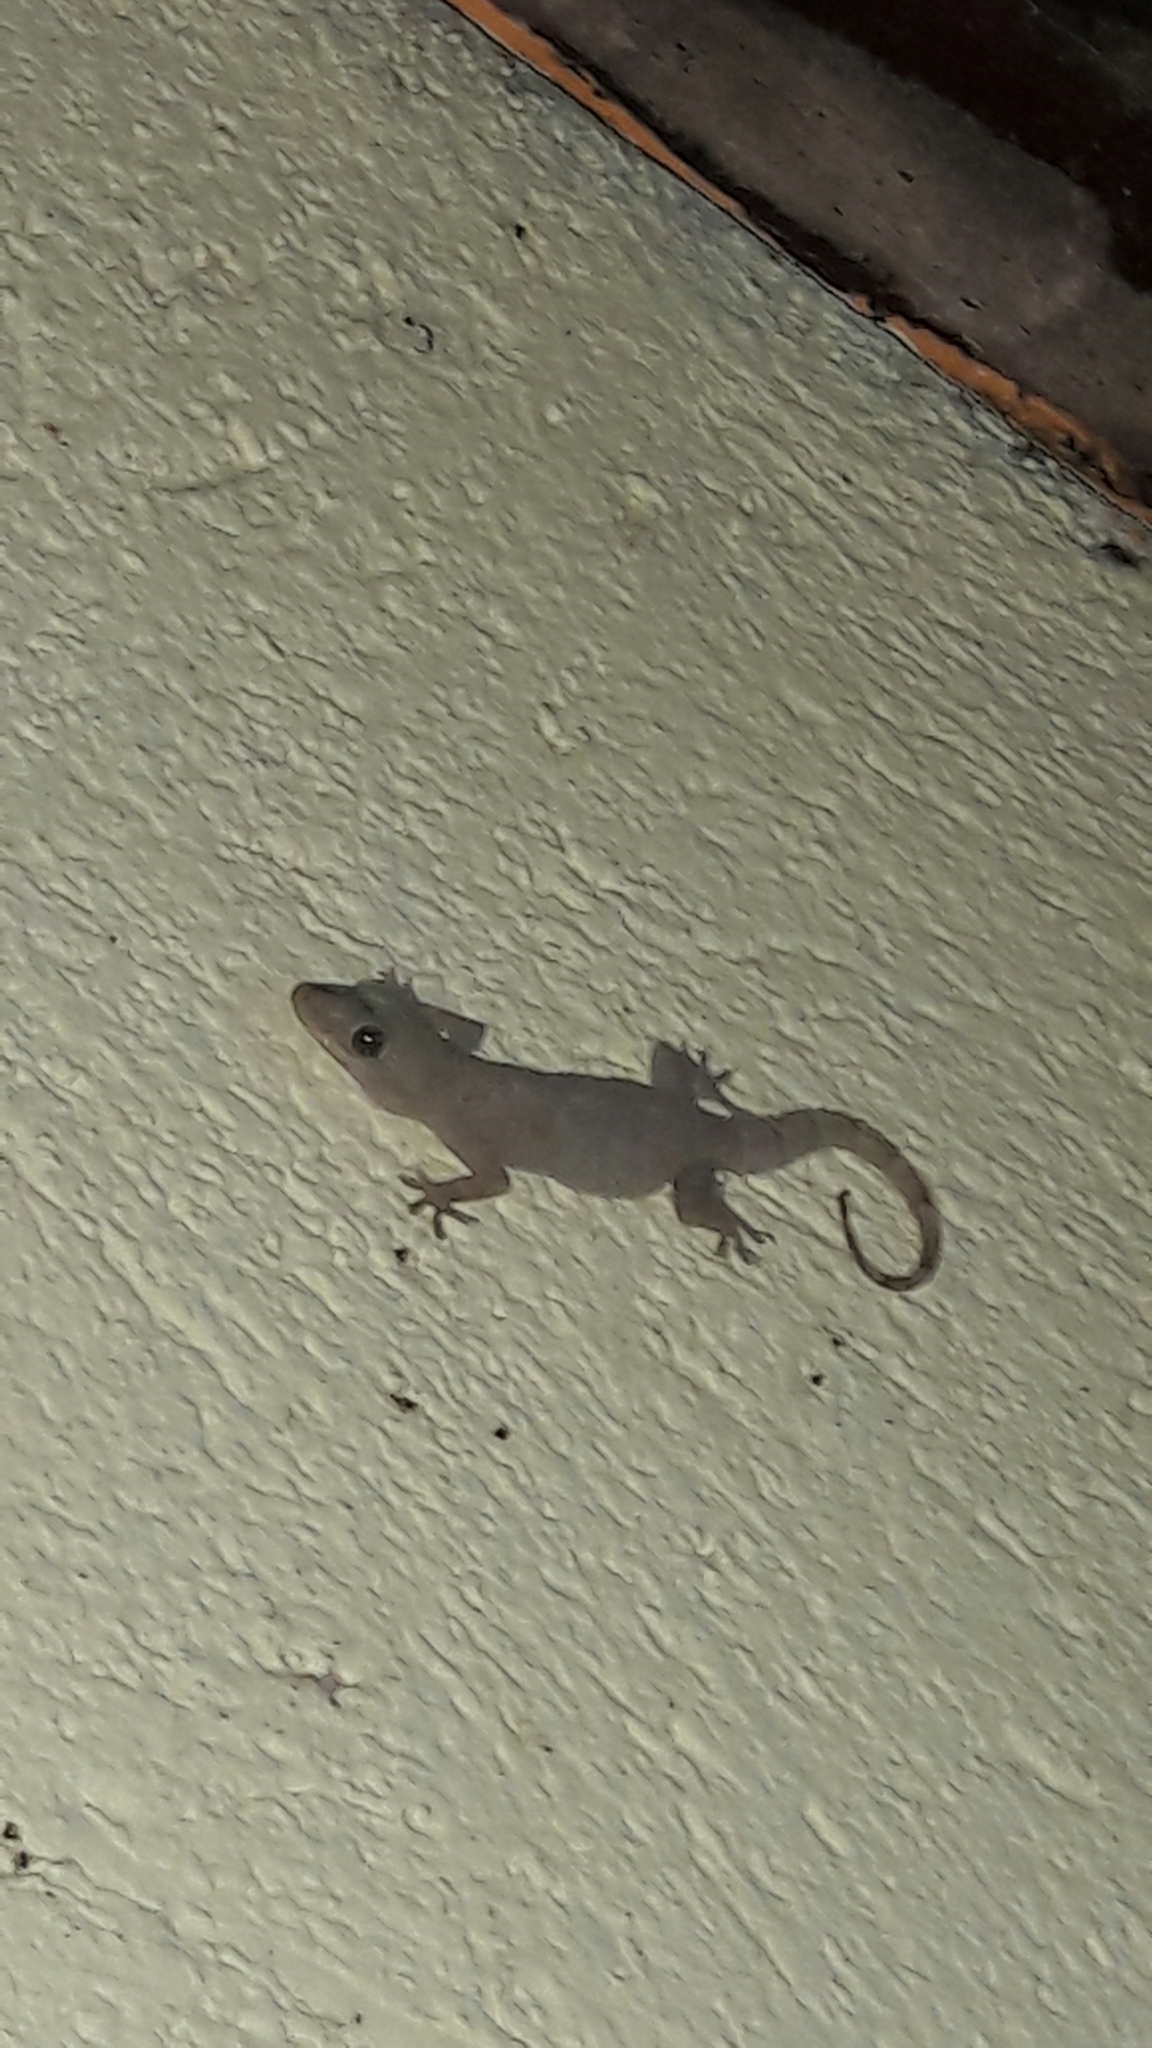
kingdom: Animalia
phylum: Chordata
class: Squamata
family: Gekkonidae
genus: Hemidactylus
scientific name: Hemidactylus mabouia
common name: House gecko
